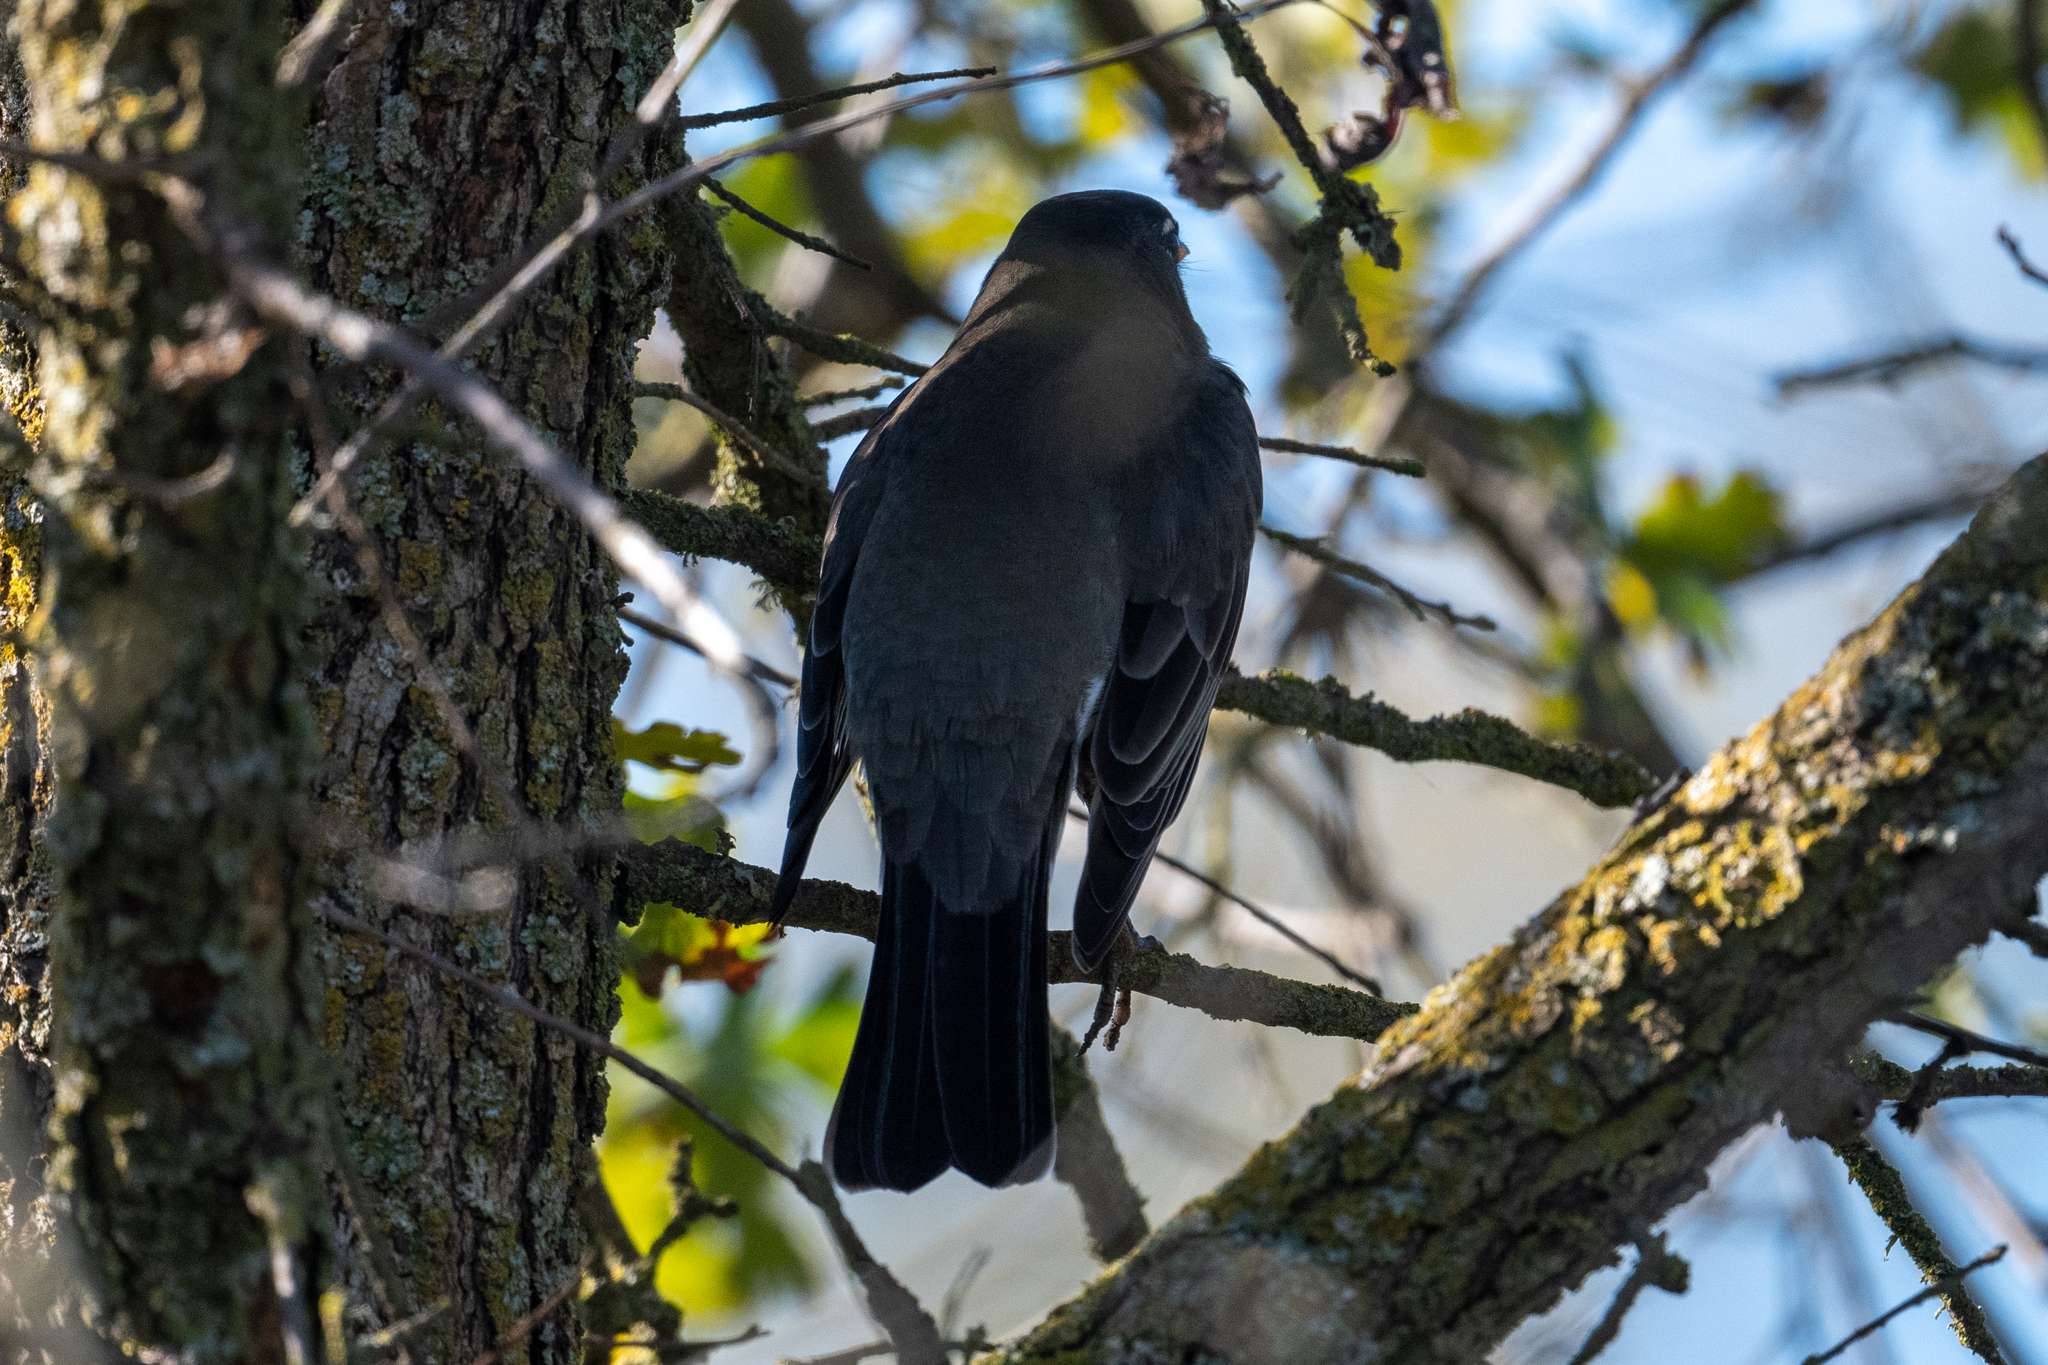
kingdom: Animalia
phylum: Chordata
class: Aves
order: Passeriformes
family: Turdidae
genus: Turdus
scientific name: Turdus migratorius
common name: American robin
